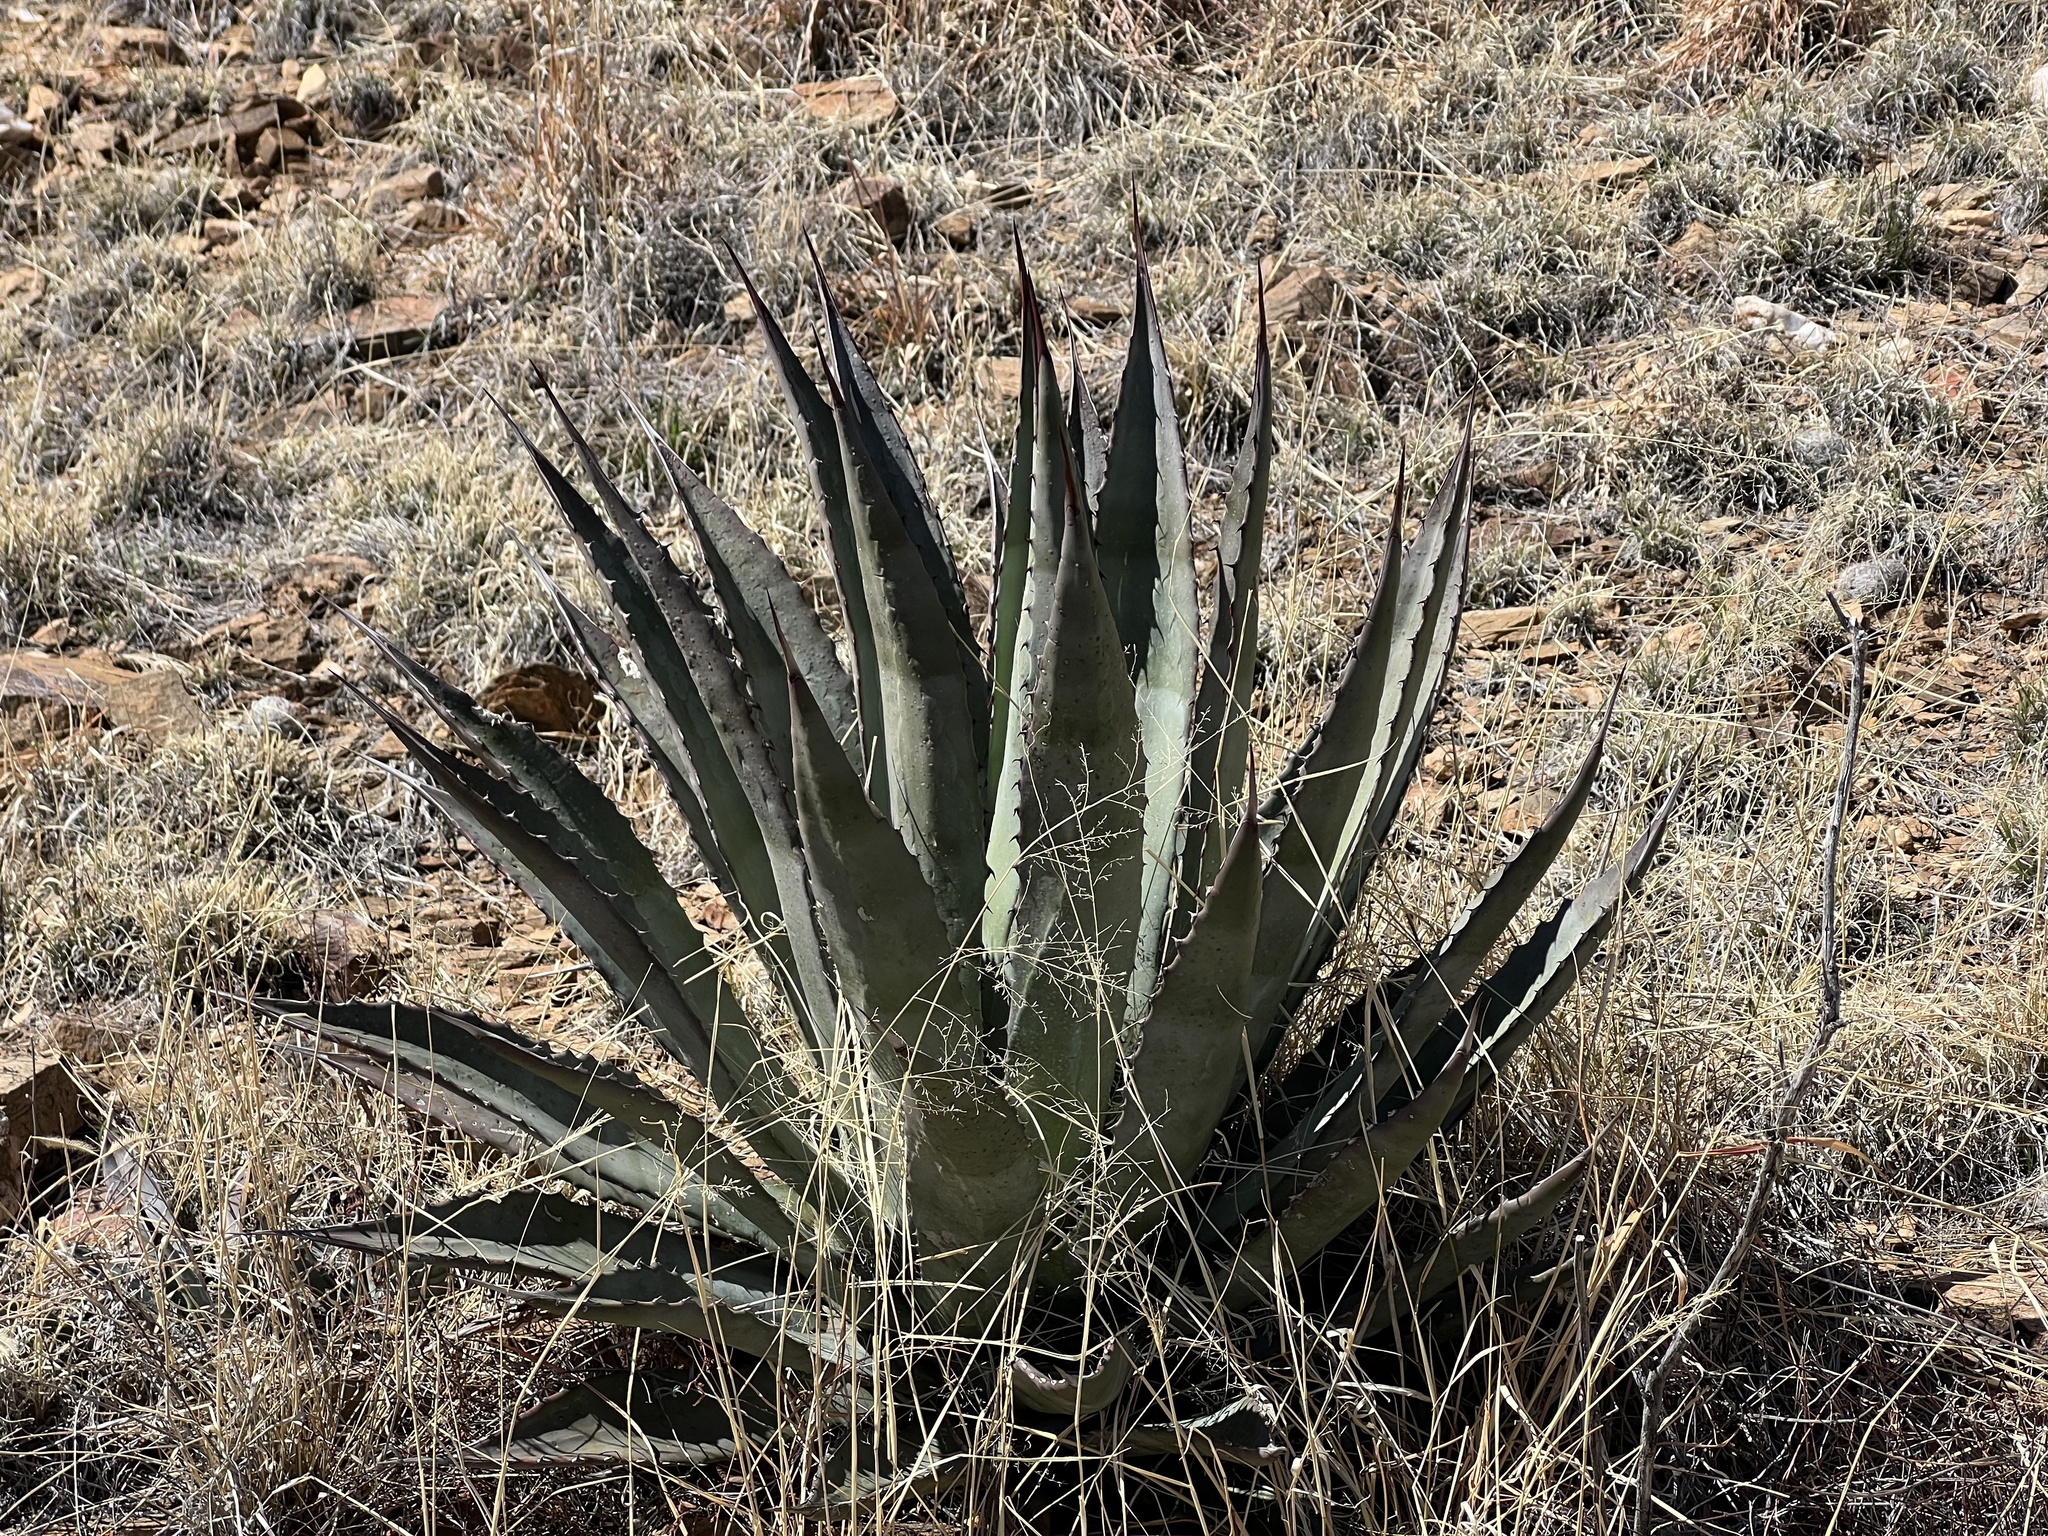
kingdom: Plantae
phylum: Tracheophyta
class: Liliopsida
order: Asparagales
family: Asparagaceae
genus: Agave
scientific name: Agave palmeri
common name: Palmer agave
